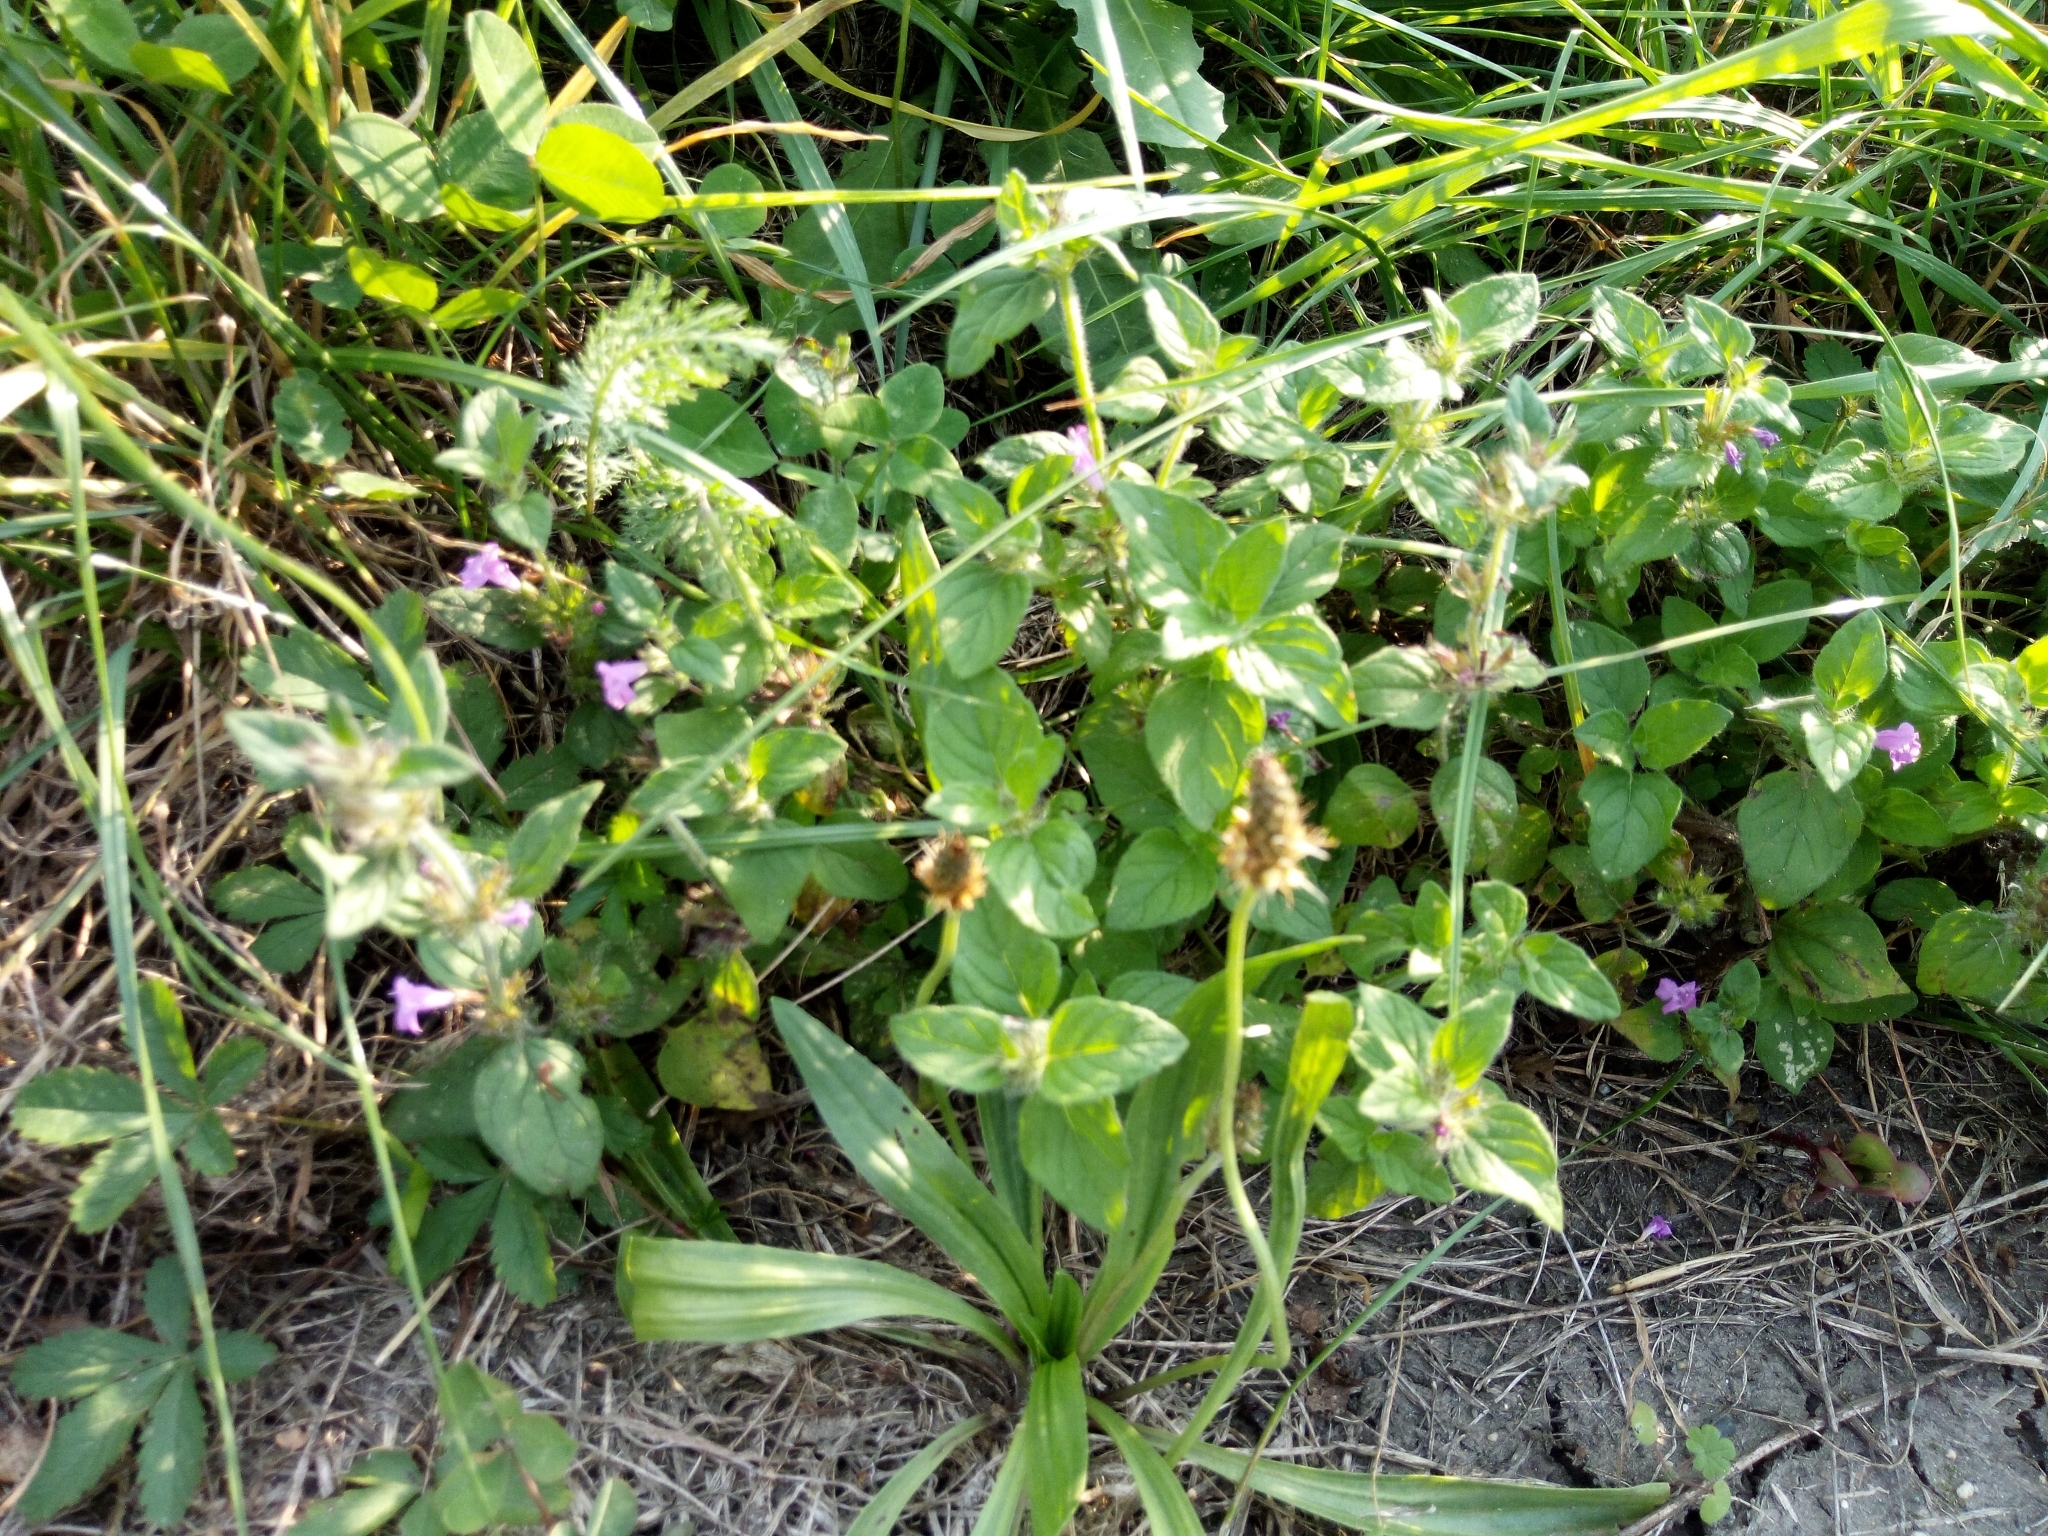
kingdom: Plantae
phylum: Tracheophyta
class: Magnoliopsida
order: Lamiales
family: Lamiaceae
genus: Clinopodium
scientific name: Clinopodium vulgare
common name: Wild basil
